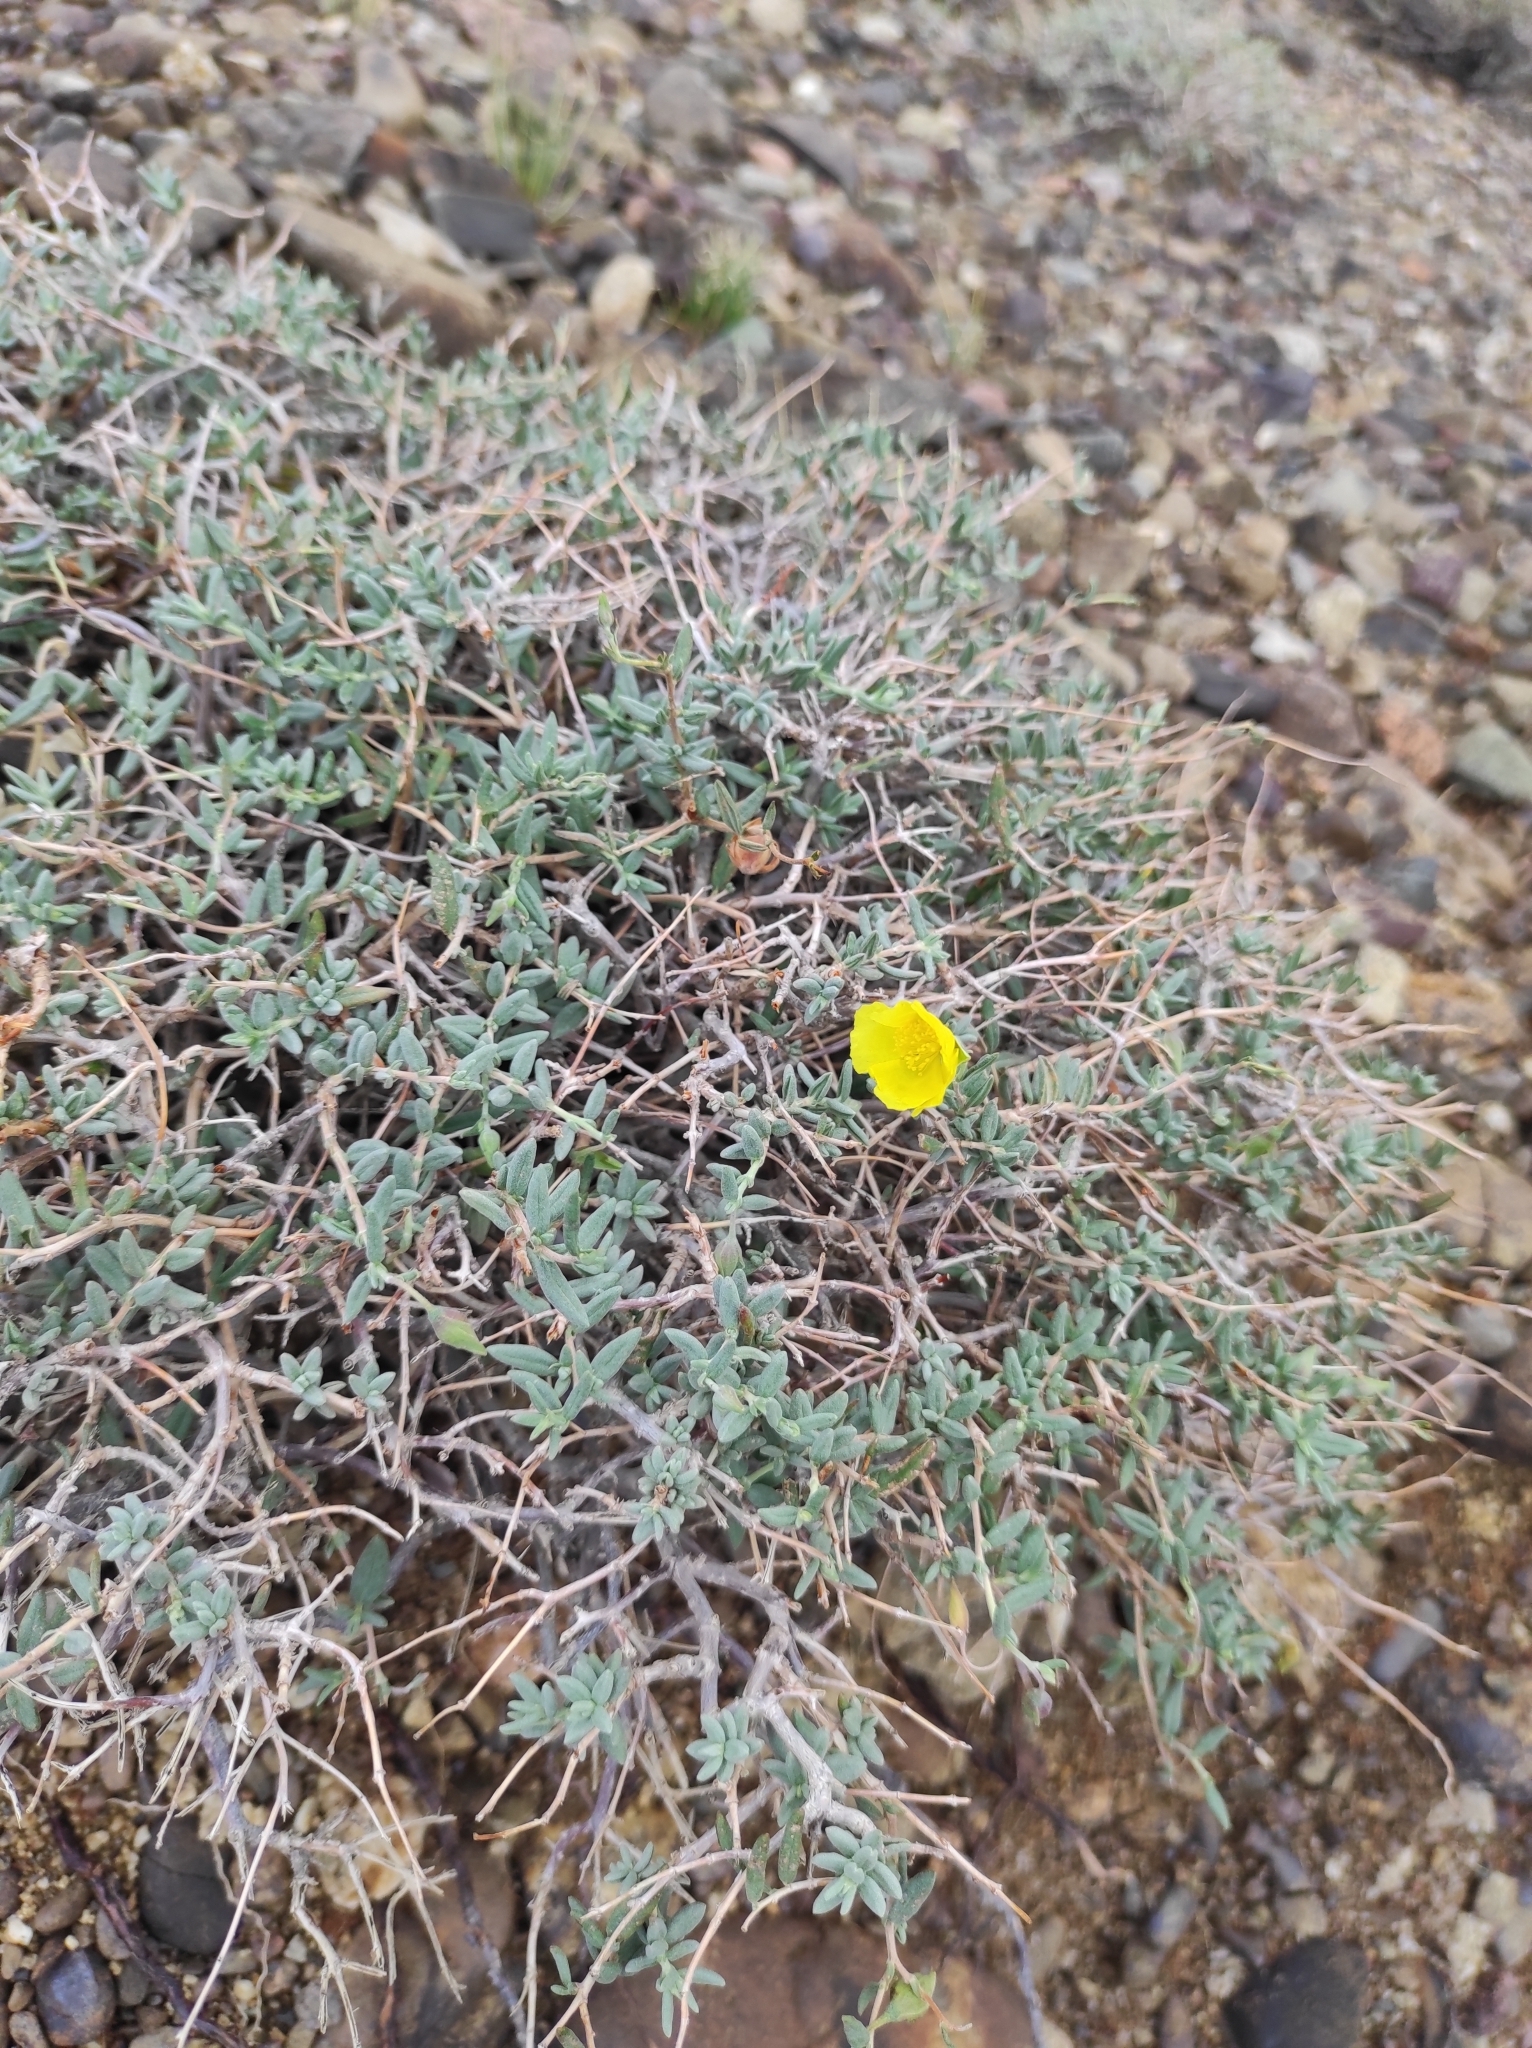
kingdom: Plantae
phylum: Tracheophyta
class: Magnoliopsida
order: Malvales
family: Cistaceae
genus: Helianthemum
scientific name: Helianthemum songaricum
